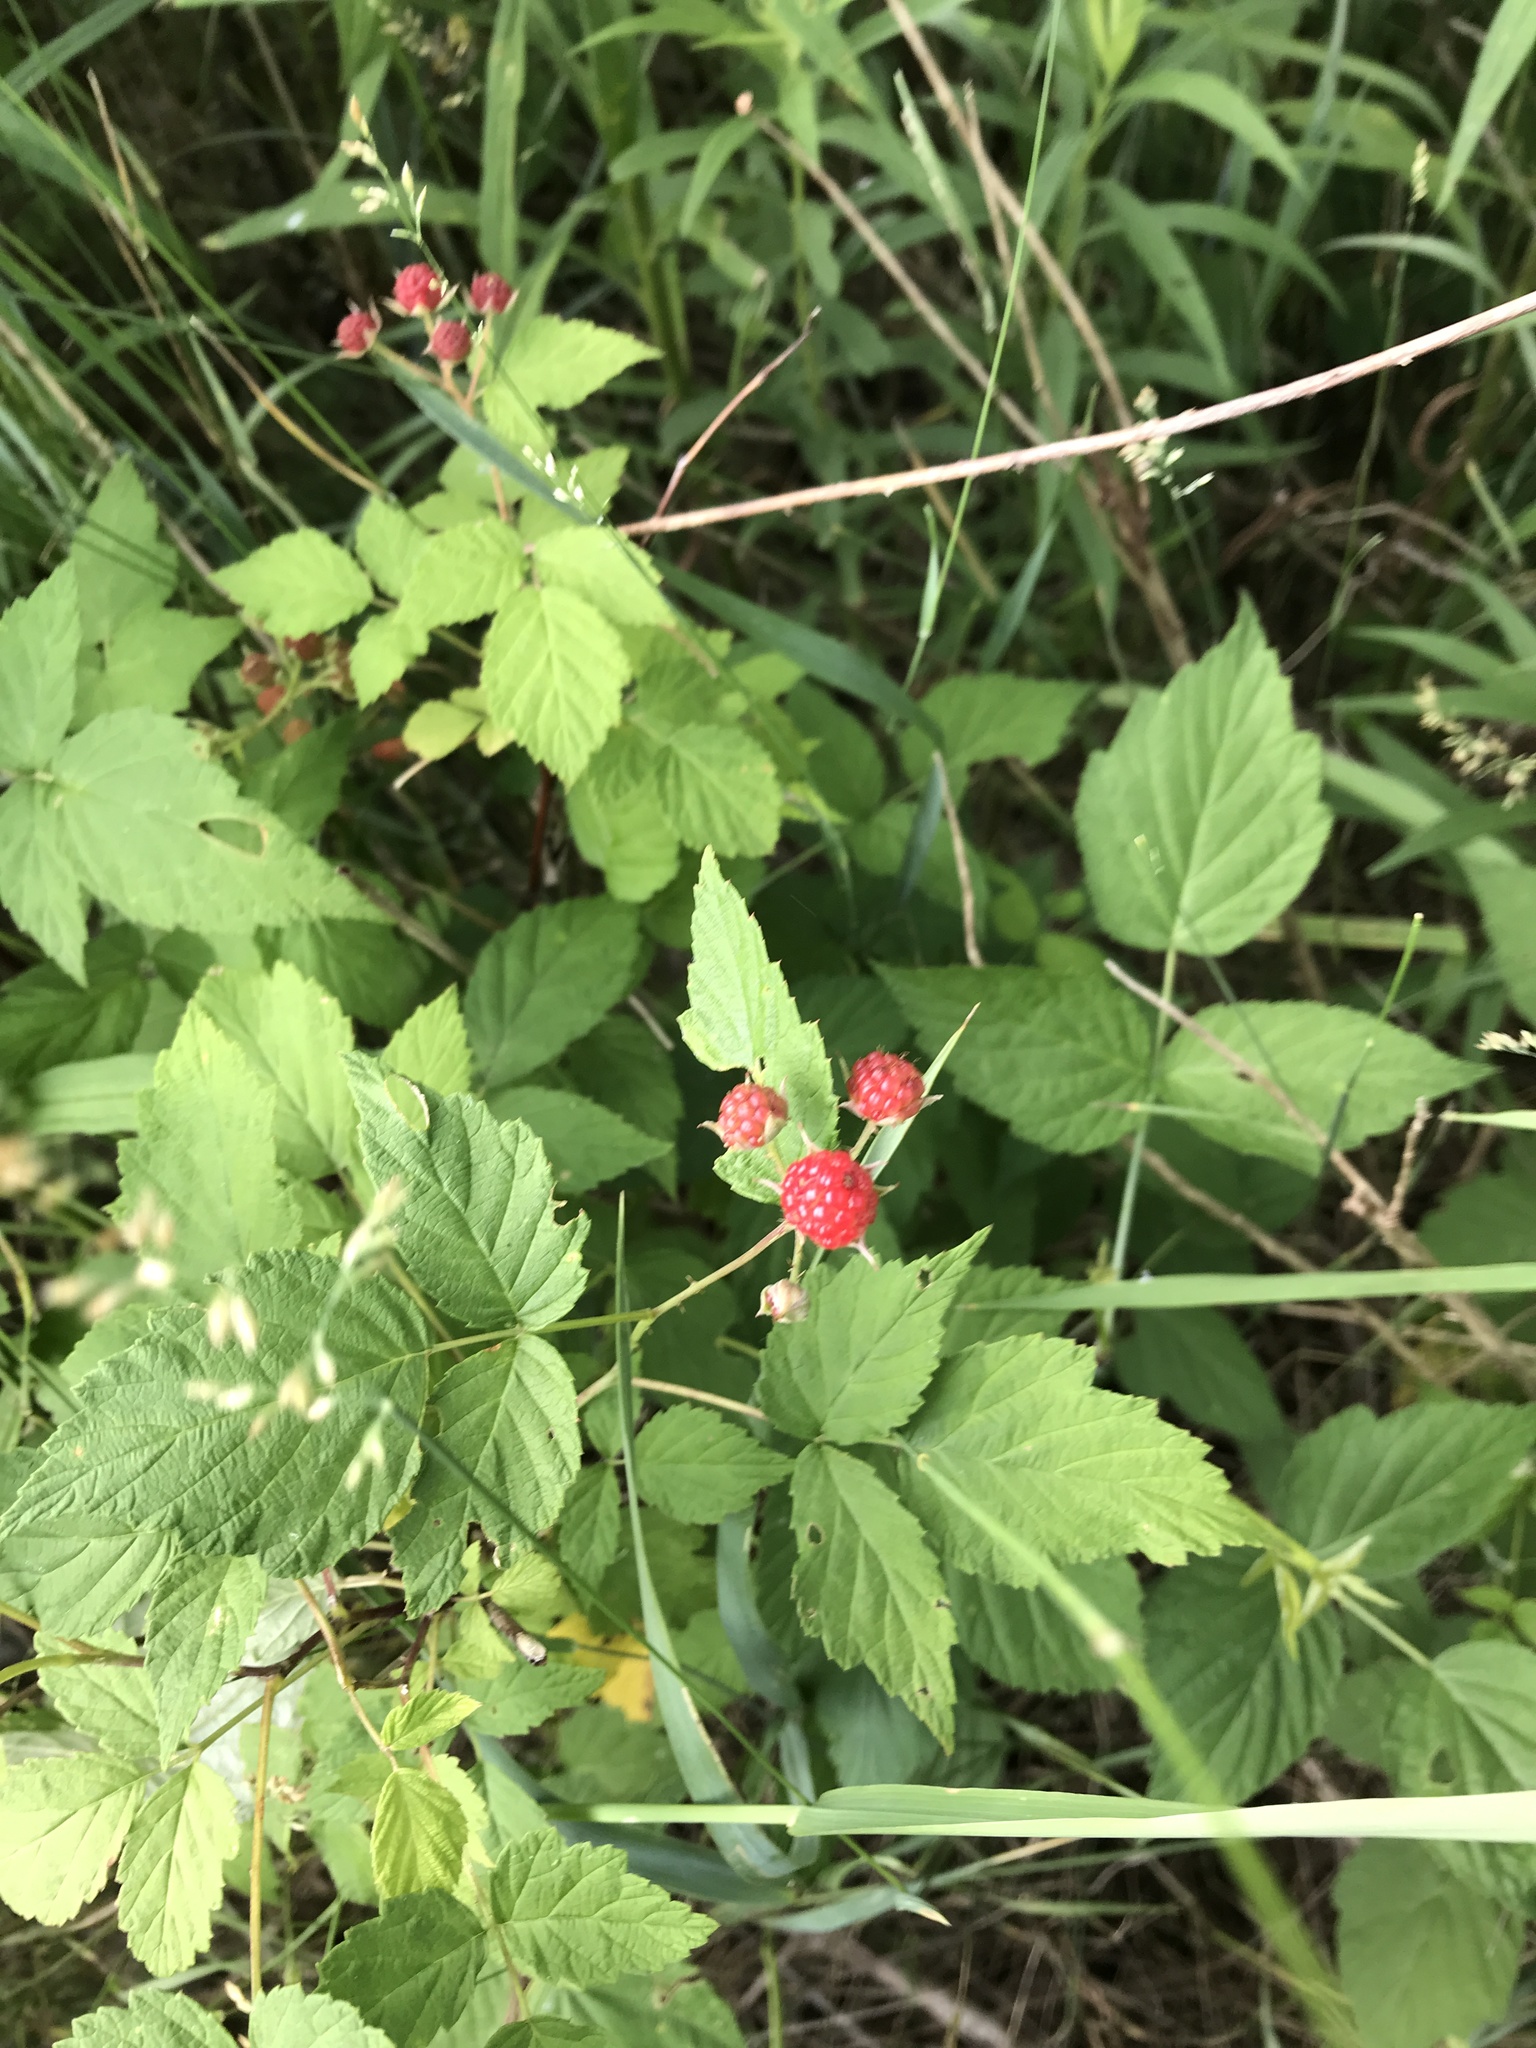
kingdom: Plantae
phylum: Tracheophyta
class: Magnoliopsida
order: Rosales
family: Rosaceae
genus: Rubus
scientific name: Rubus occidentalis
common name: Black raspberry
